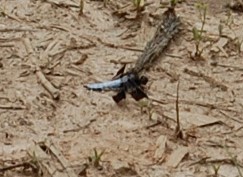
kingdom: Animalia
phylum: Arthropoda
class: Insecta
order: Odonata
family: Libellulidae
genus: Plathemis
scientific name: Plathemis lydia
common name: Common whitetail
